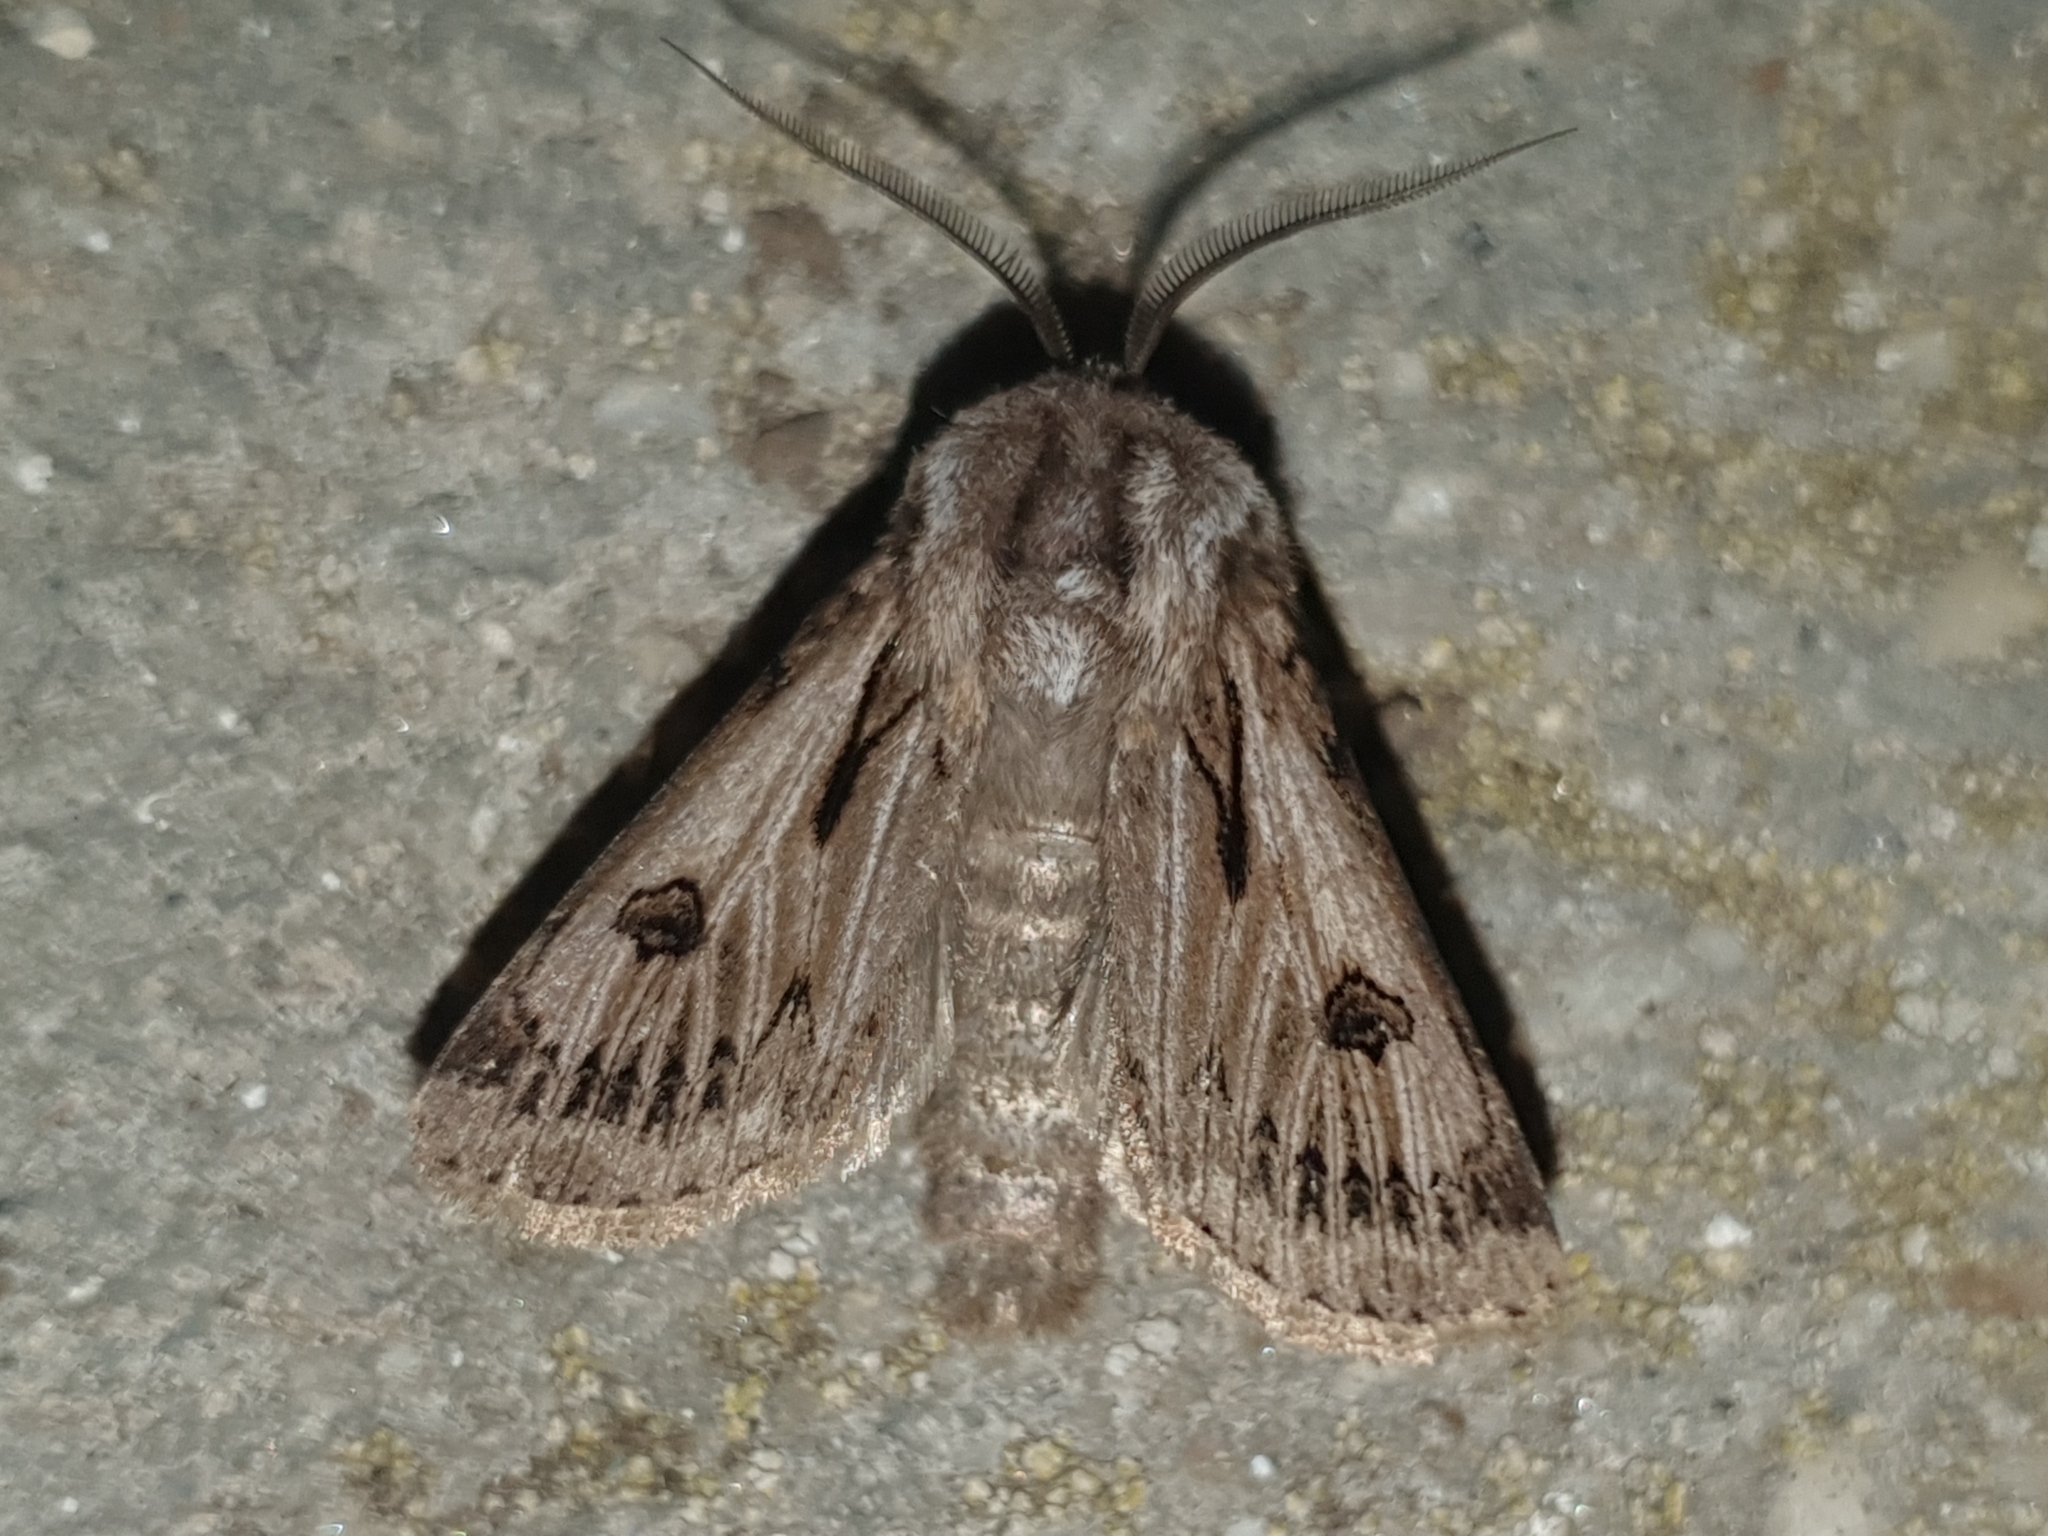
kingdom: Animalia
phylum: Arthropoda
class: Insecta
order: Lepidoptera
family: Noctuidae
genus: Agrotis
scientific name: Agrotis chretieni
